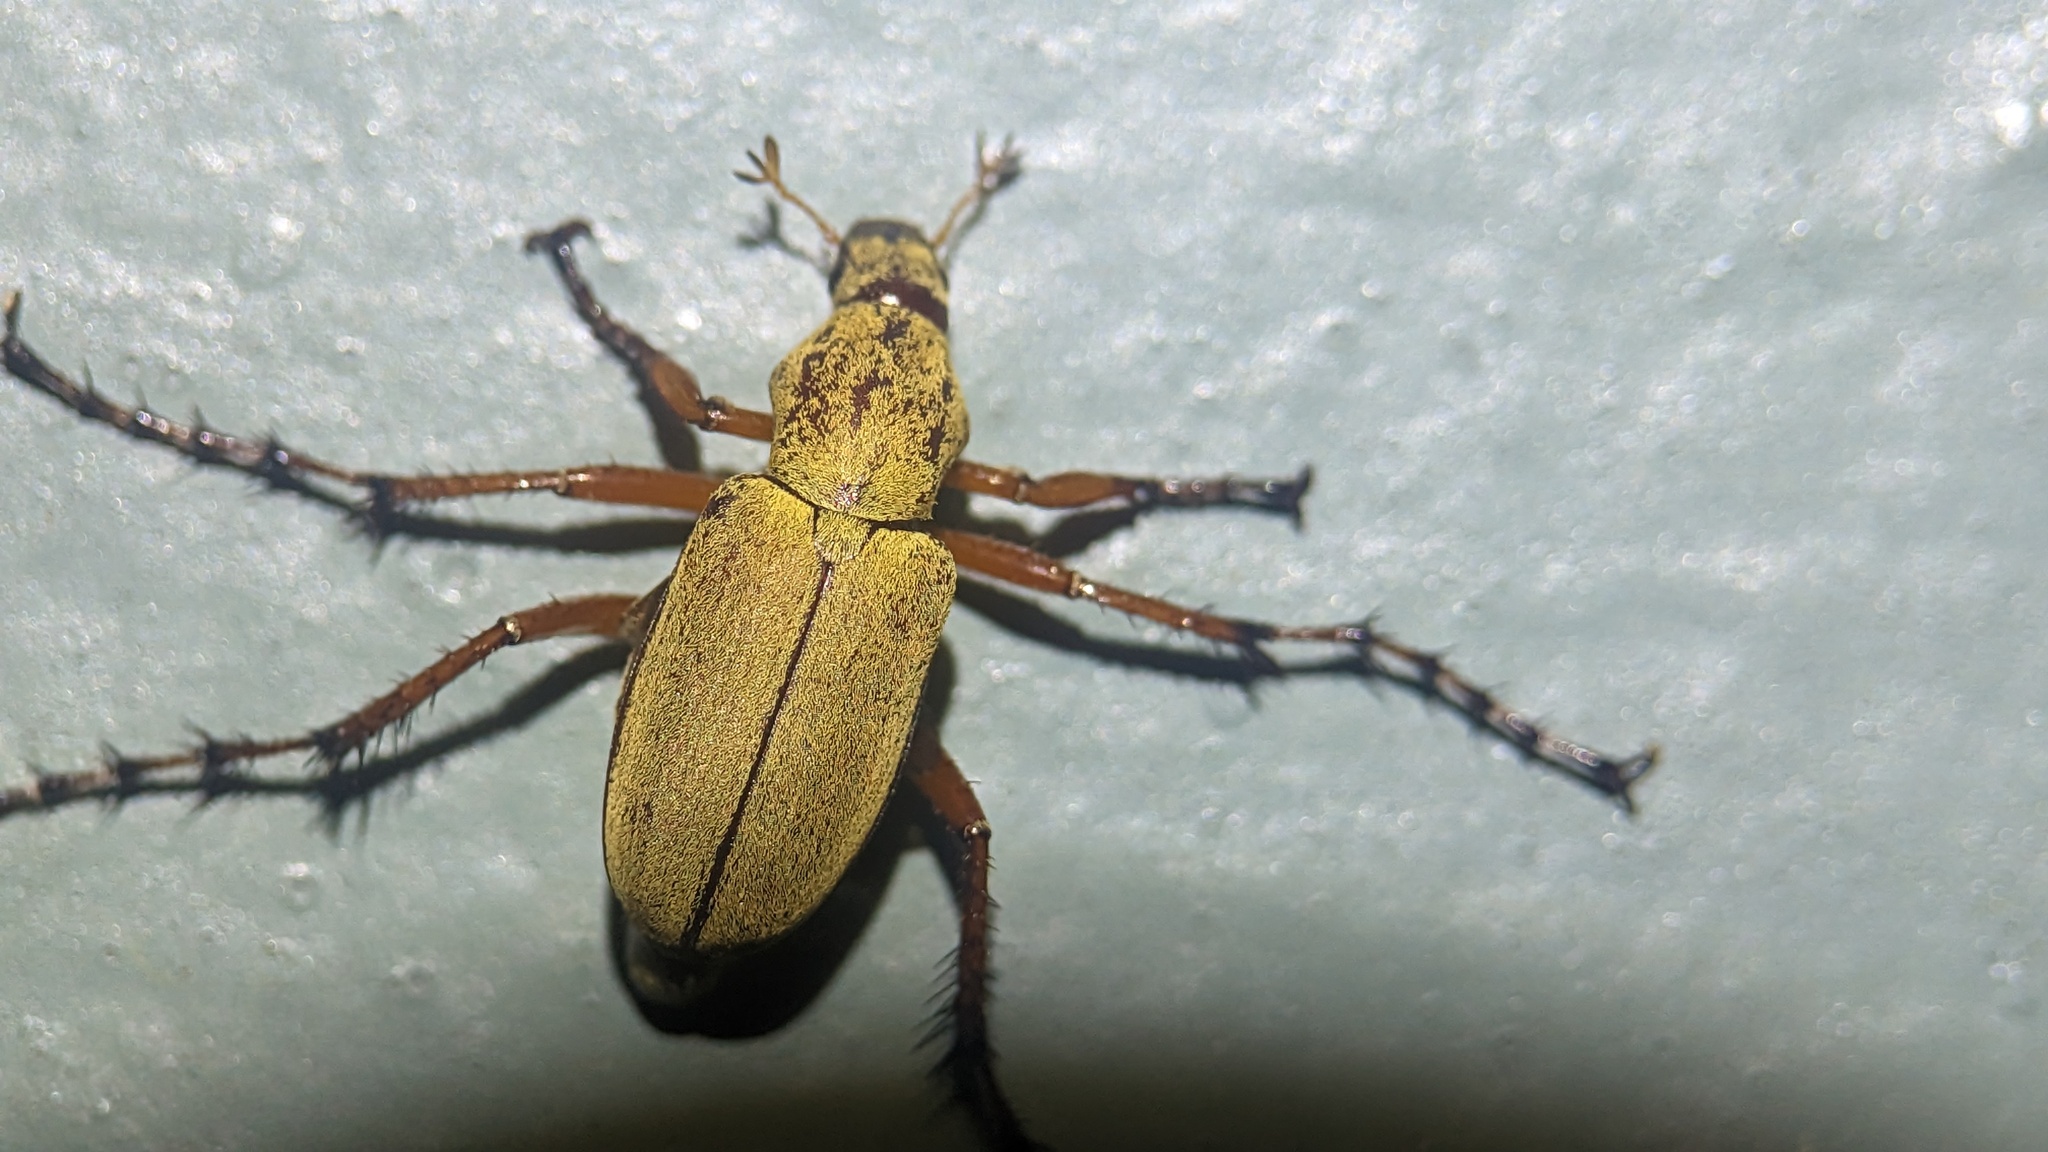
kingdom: Animalia
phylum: Arthropoda
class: Insecta
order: Coleoptera
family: Scarabaeidae
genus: Macrodactylus
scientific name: Macrodactylus subspinosus
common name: American rose chafer
